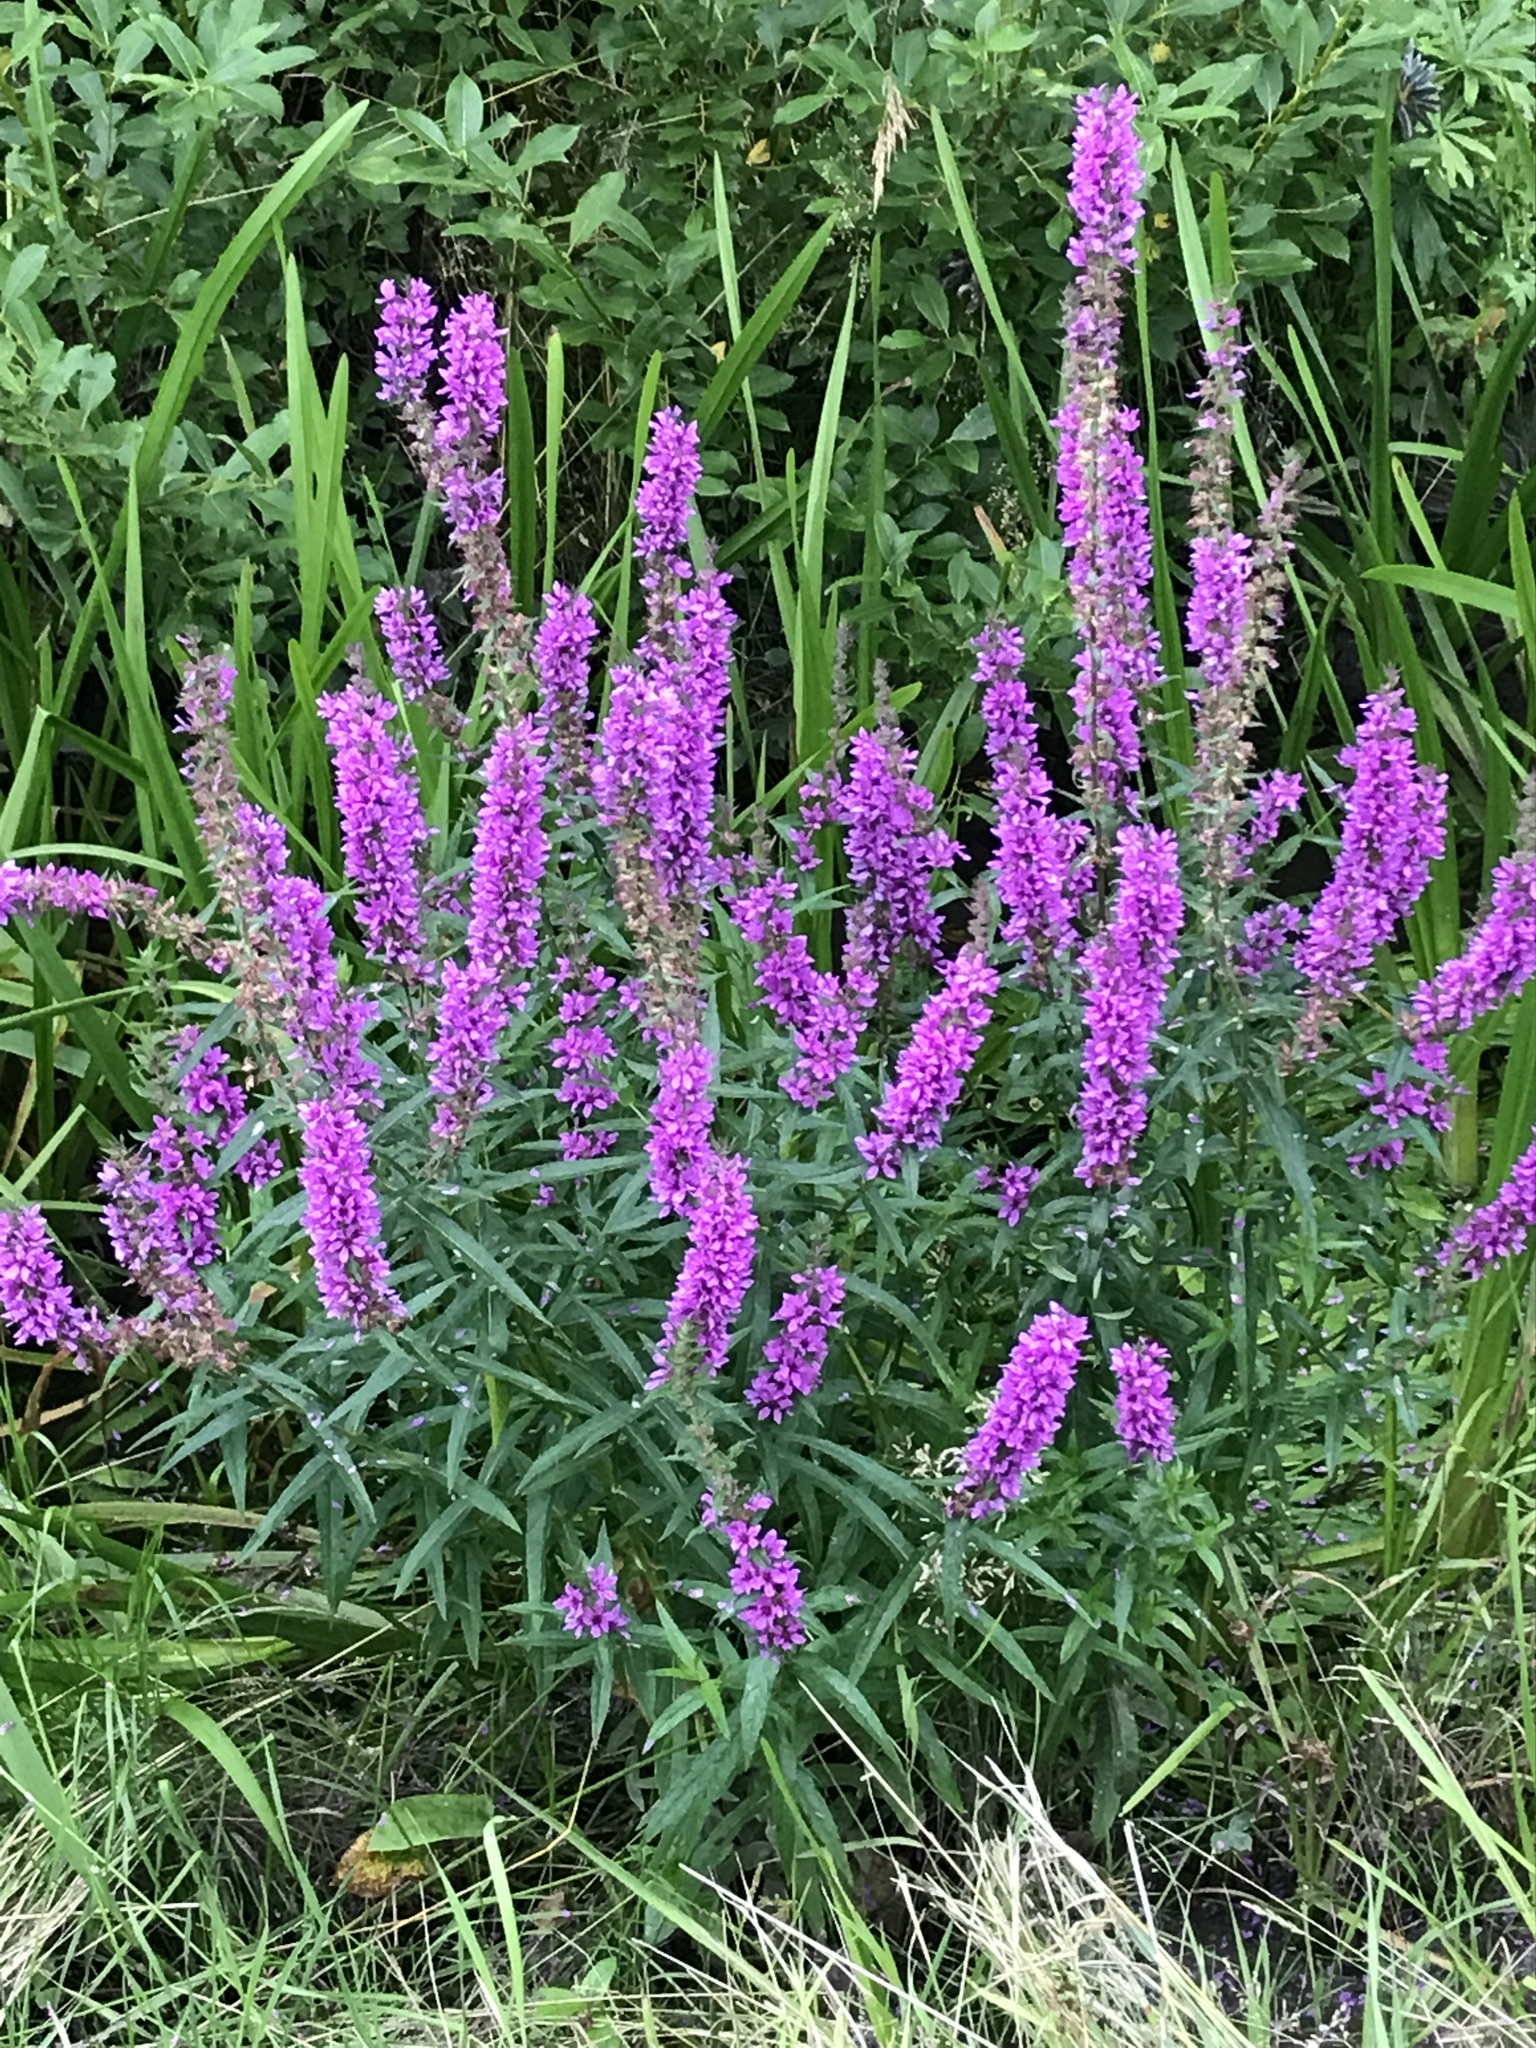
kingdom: Plantae
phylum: Tracheophyta
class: Magnoliopsida
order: Myrtales
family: Lythraceae
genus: Lythrum
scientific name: Lythrum salicaria
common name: Purple loosestrife
